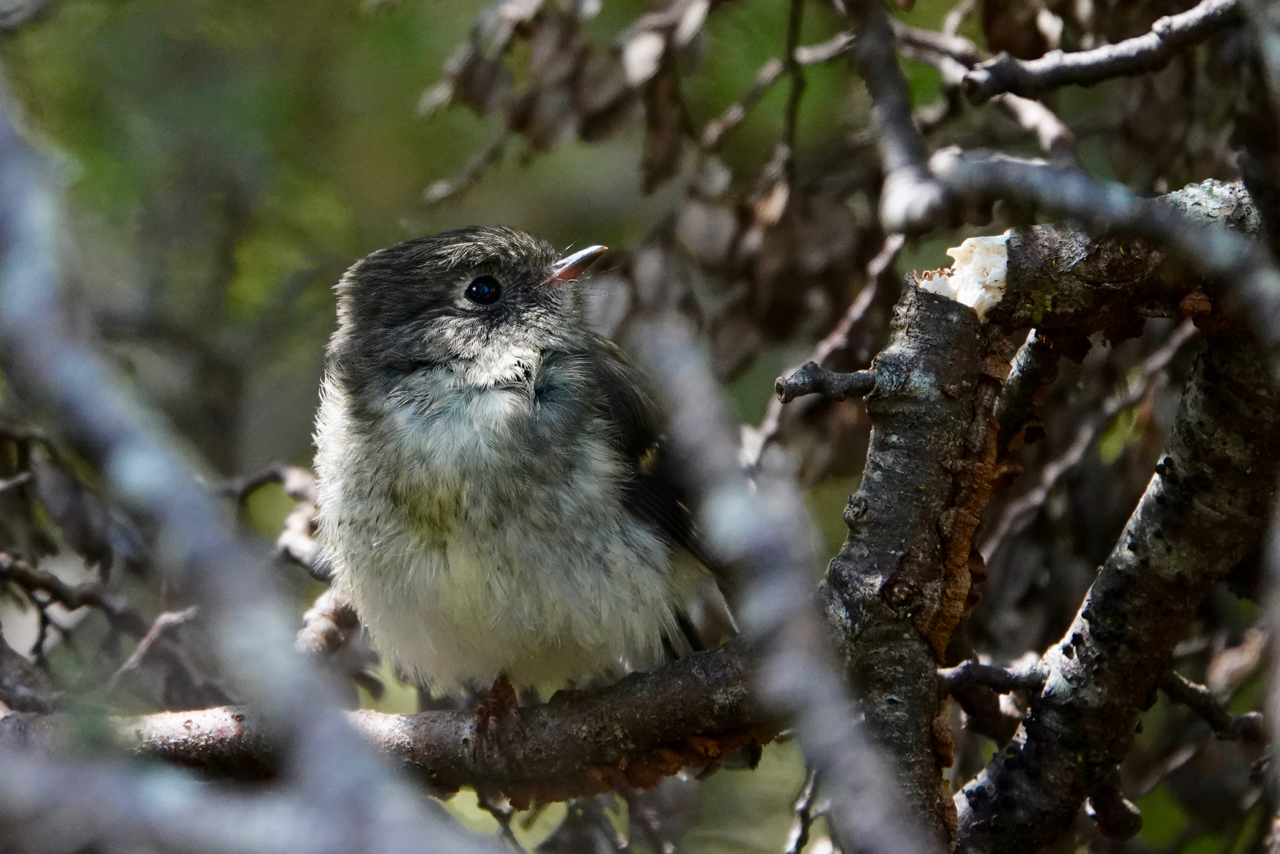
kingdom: Animalia
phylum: Chordata
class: Aves
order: Passeriformes
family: Petroicidae
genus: Petroica
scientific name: Petroica macrocephala
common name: Tomtit
